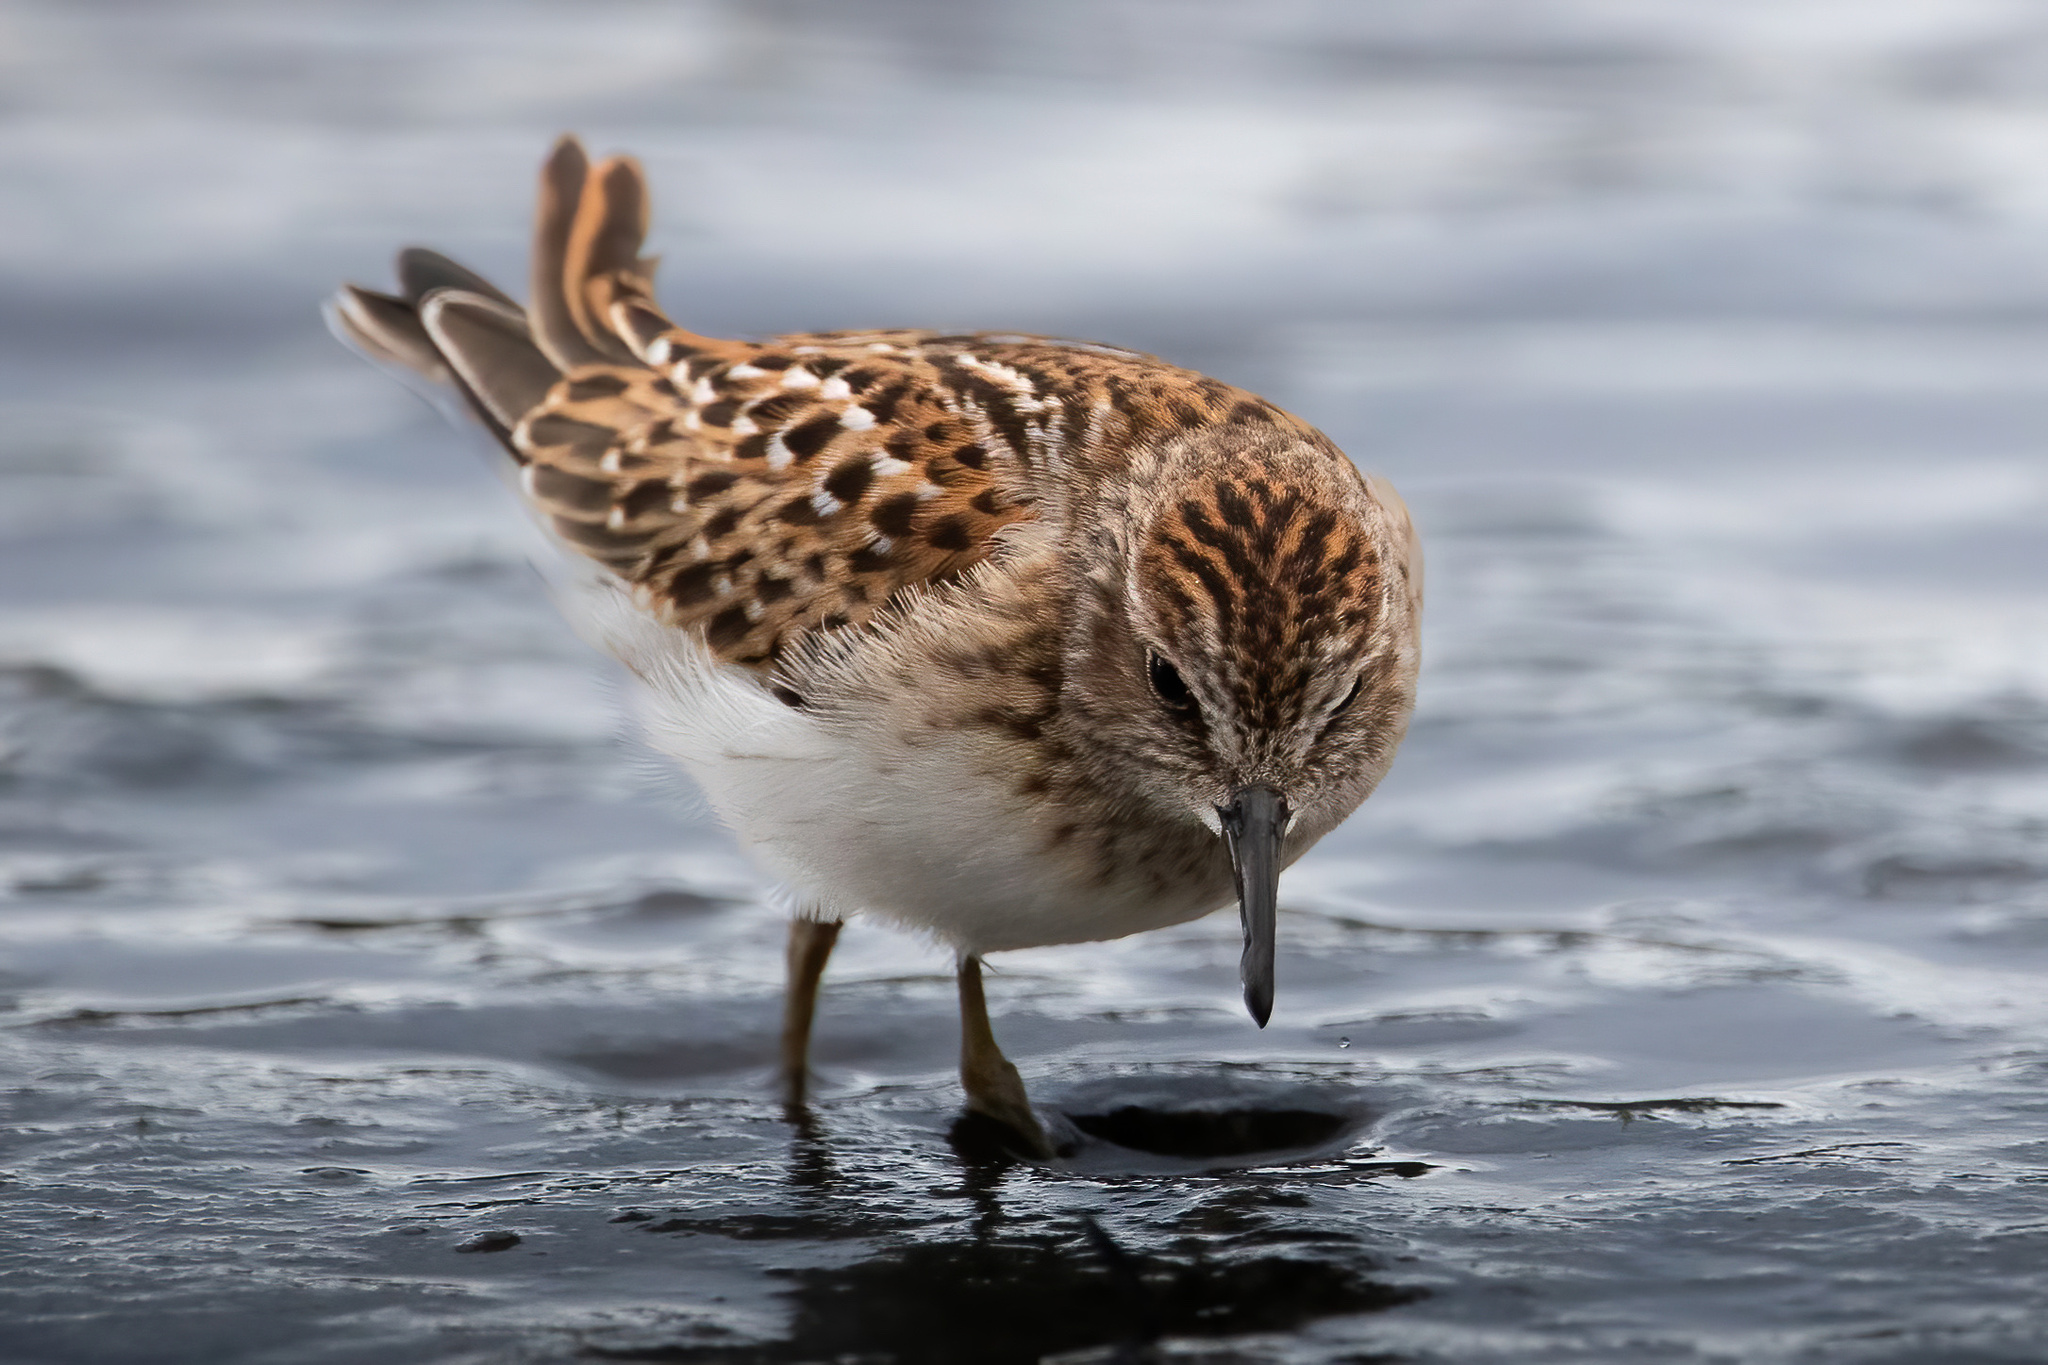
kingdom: Animalia
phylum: Chordata
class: Aves
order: Charadriiformes
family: Scolopacidae
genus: Calidris
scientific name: Calidris minutilla
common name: Least sandpiper
